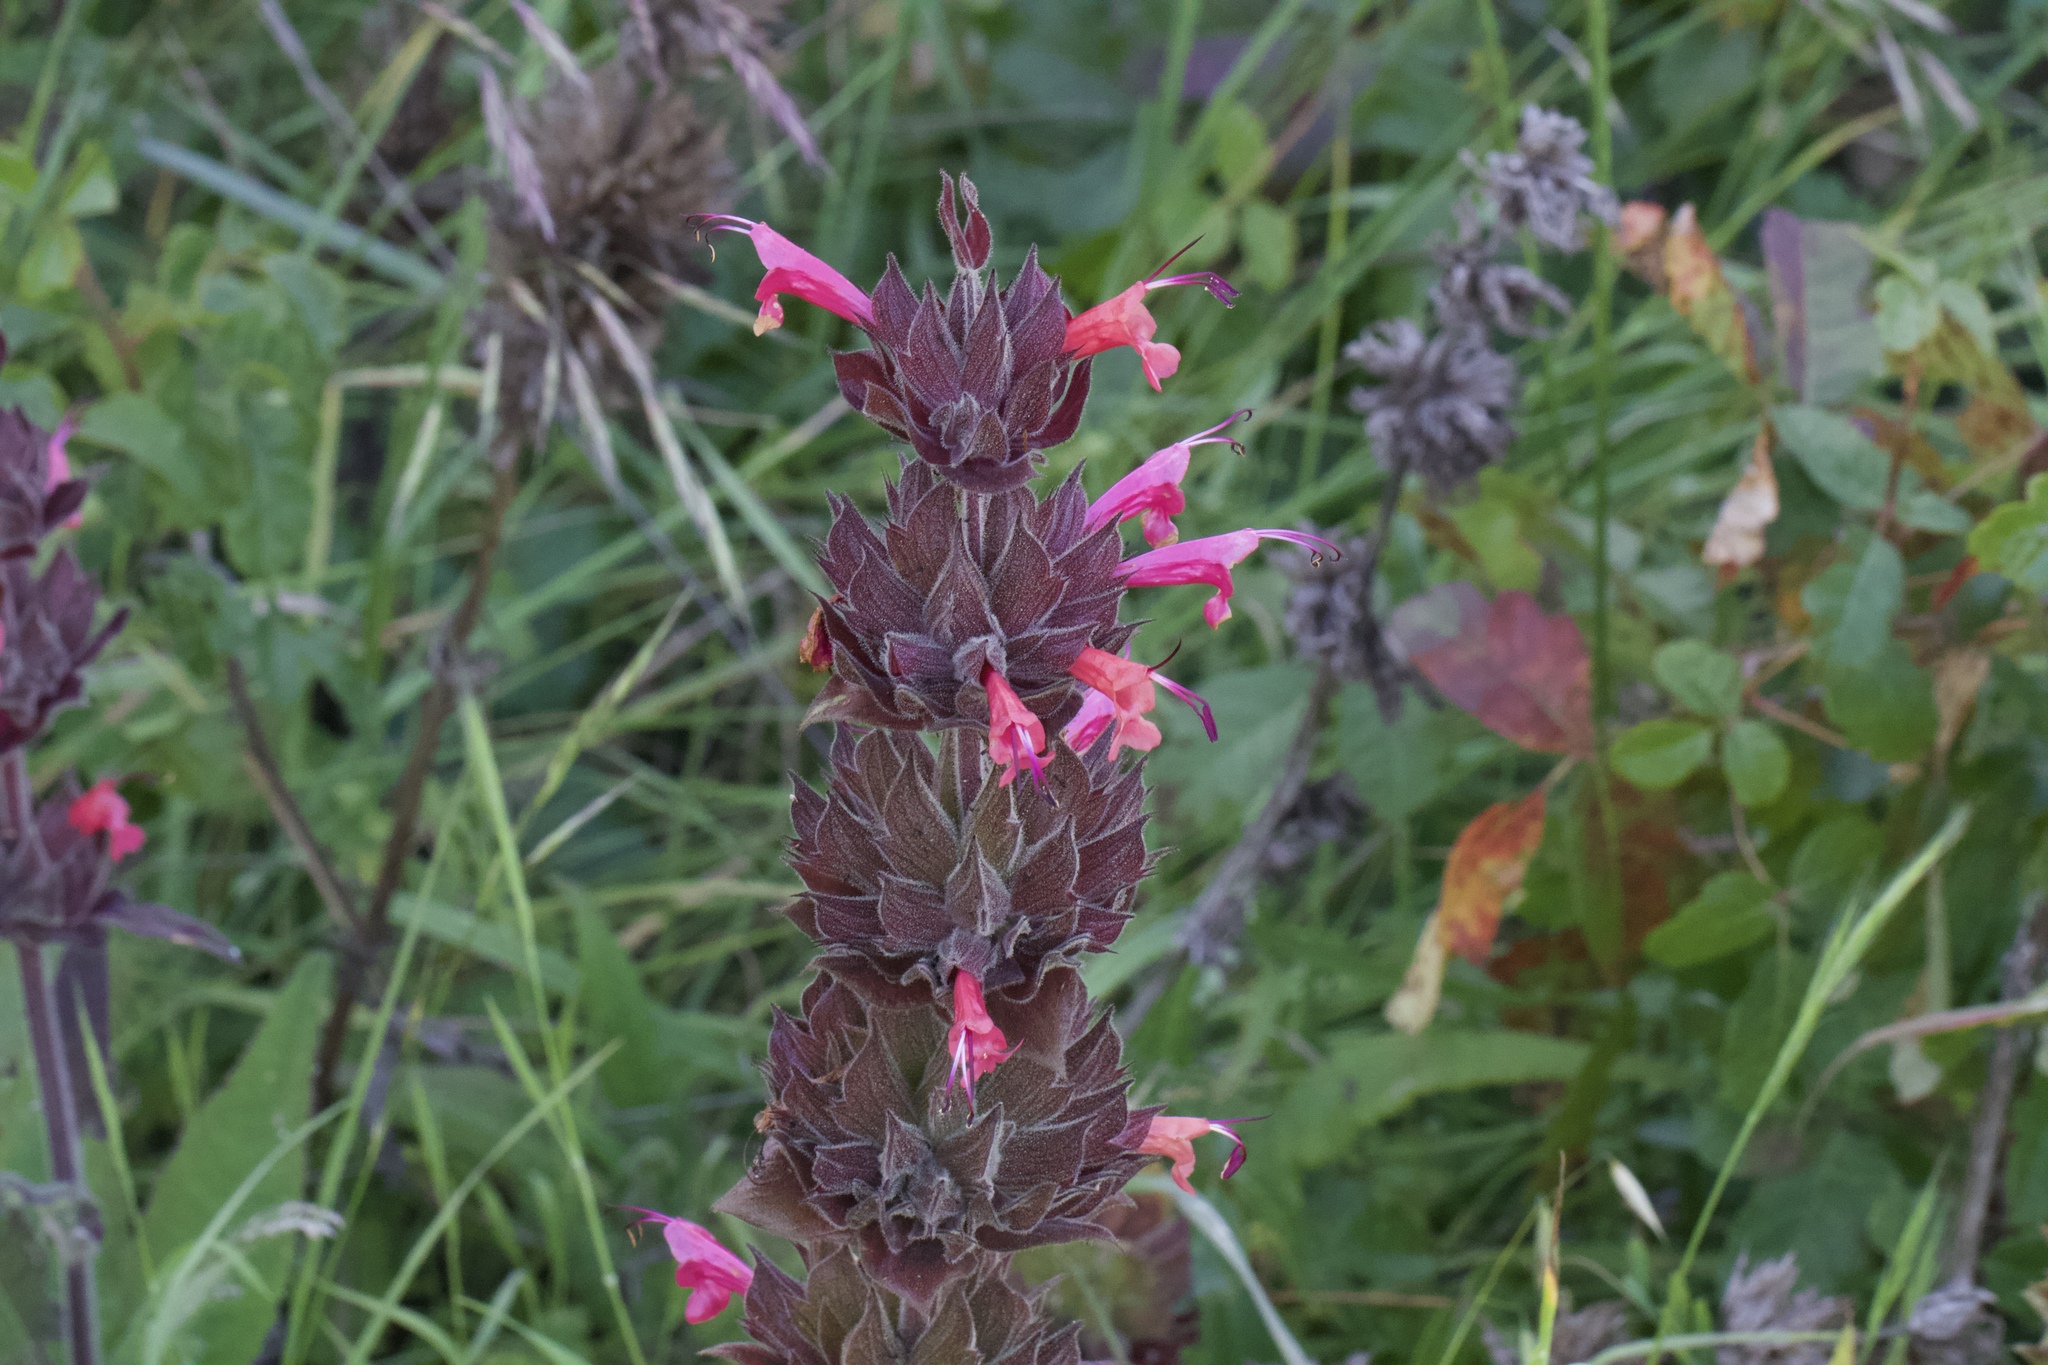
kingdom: Plantae
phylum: Tracheophyta
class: Magnoliopsida
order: Lamiales
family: Lamiaceae
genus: Salvia
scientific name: Salvia spathacea
